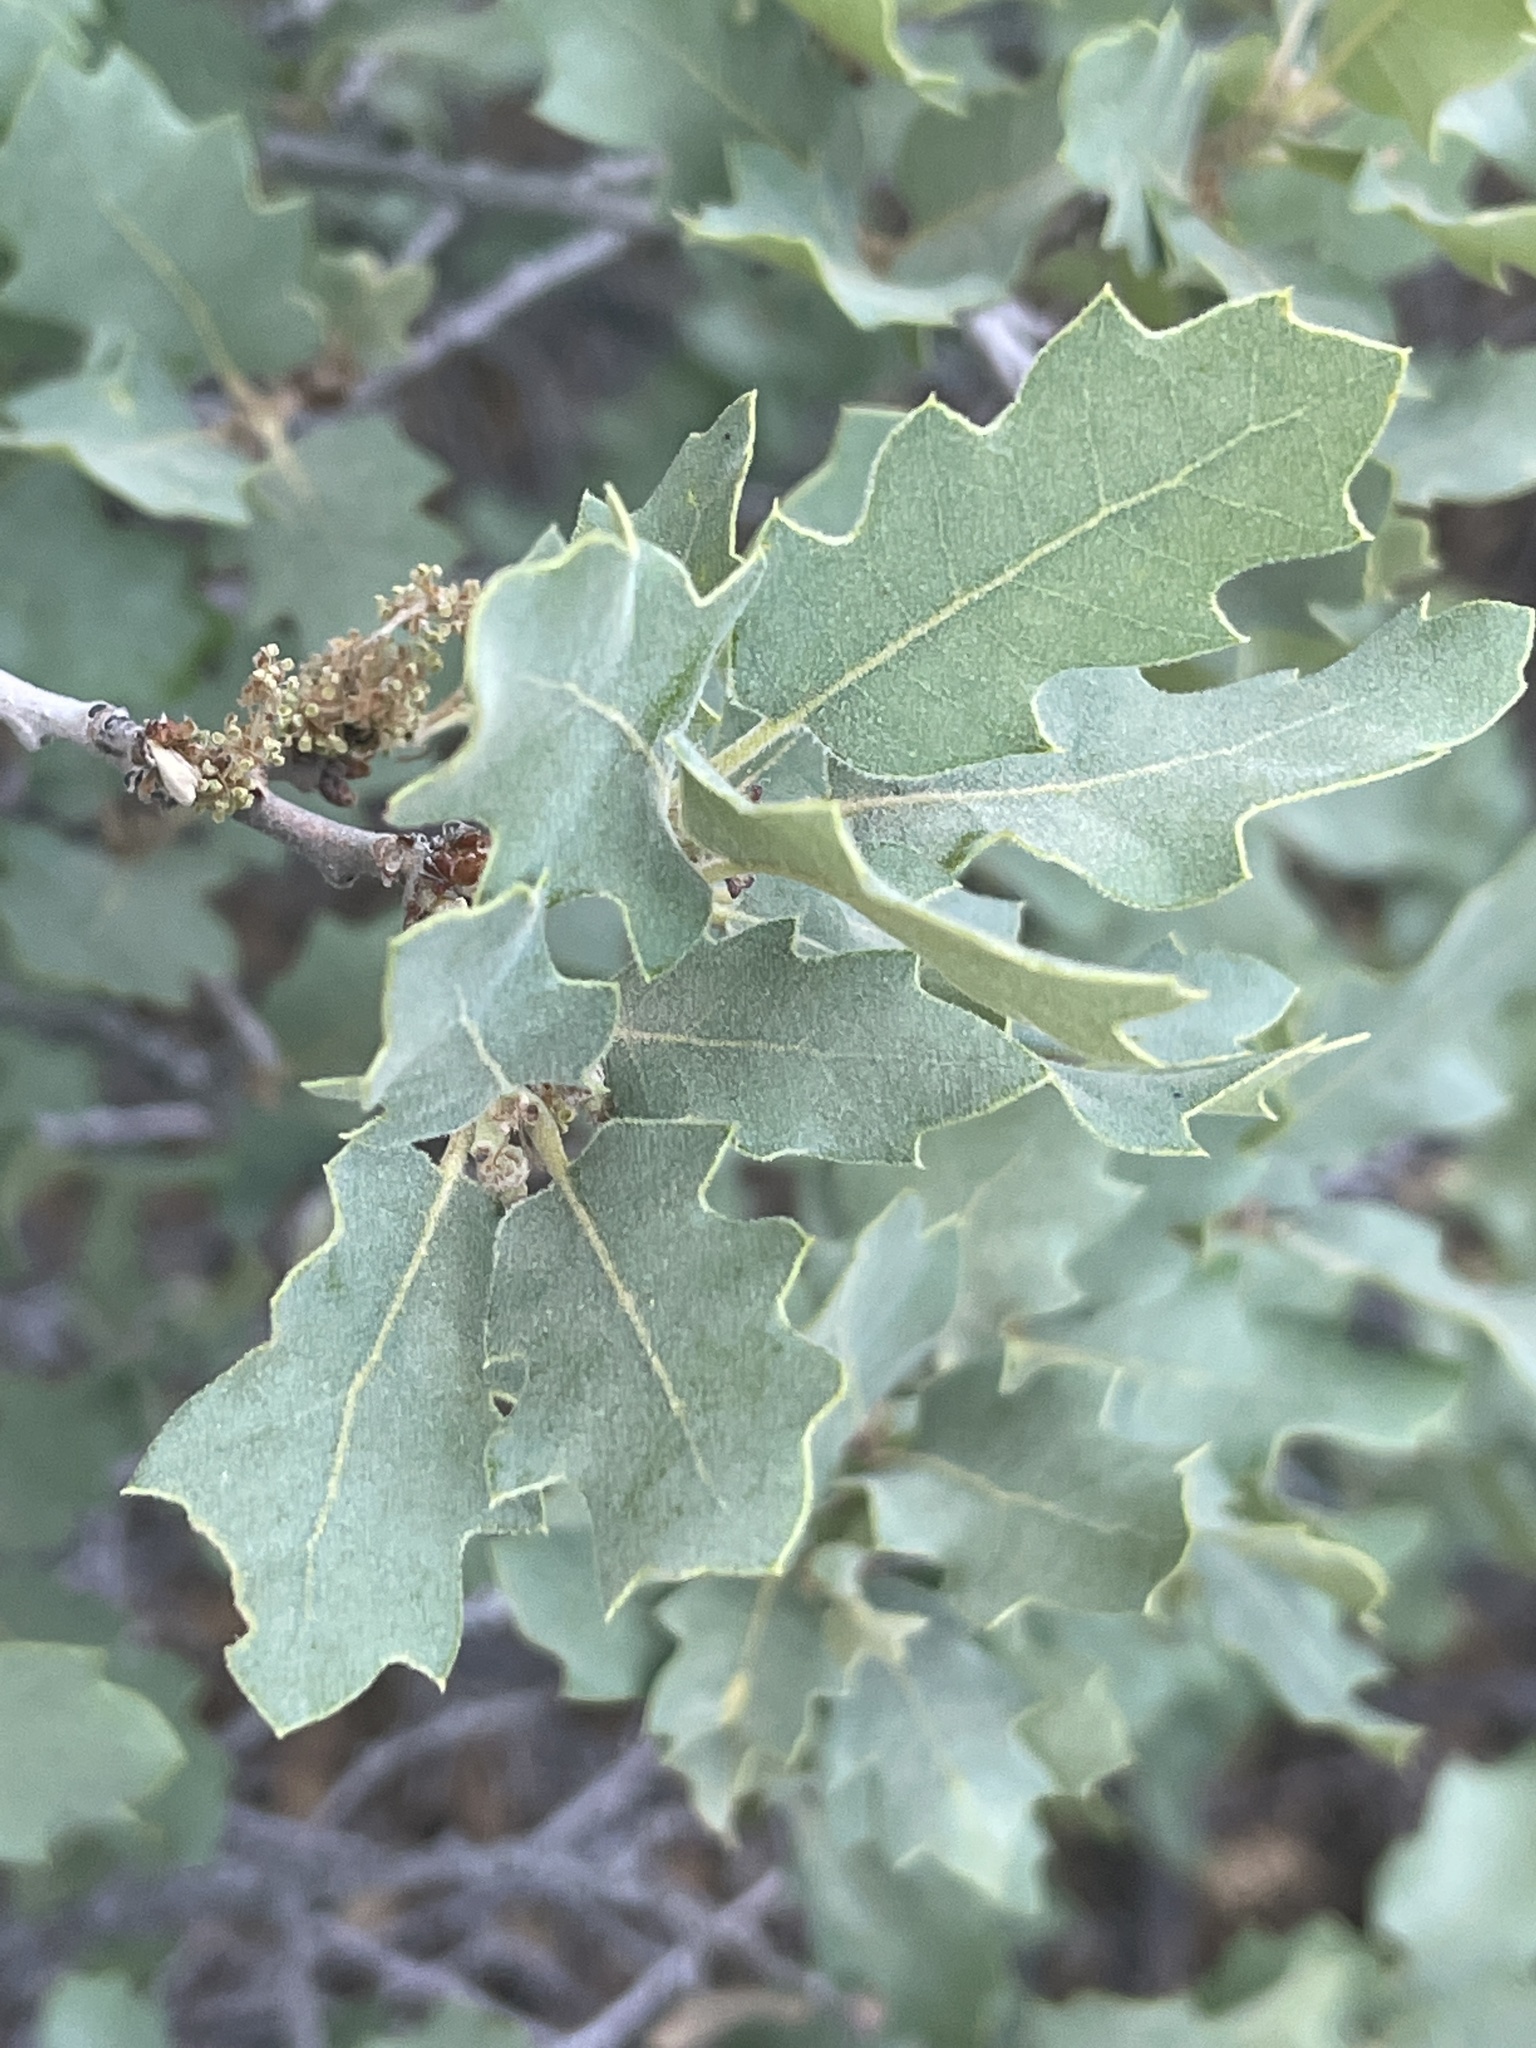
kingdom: Plantae
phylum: Tracheophyta
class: Magnoliopsida
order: Fagales
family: Fagaceae
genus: Quercus
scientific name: Quercus welshii
